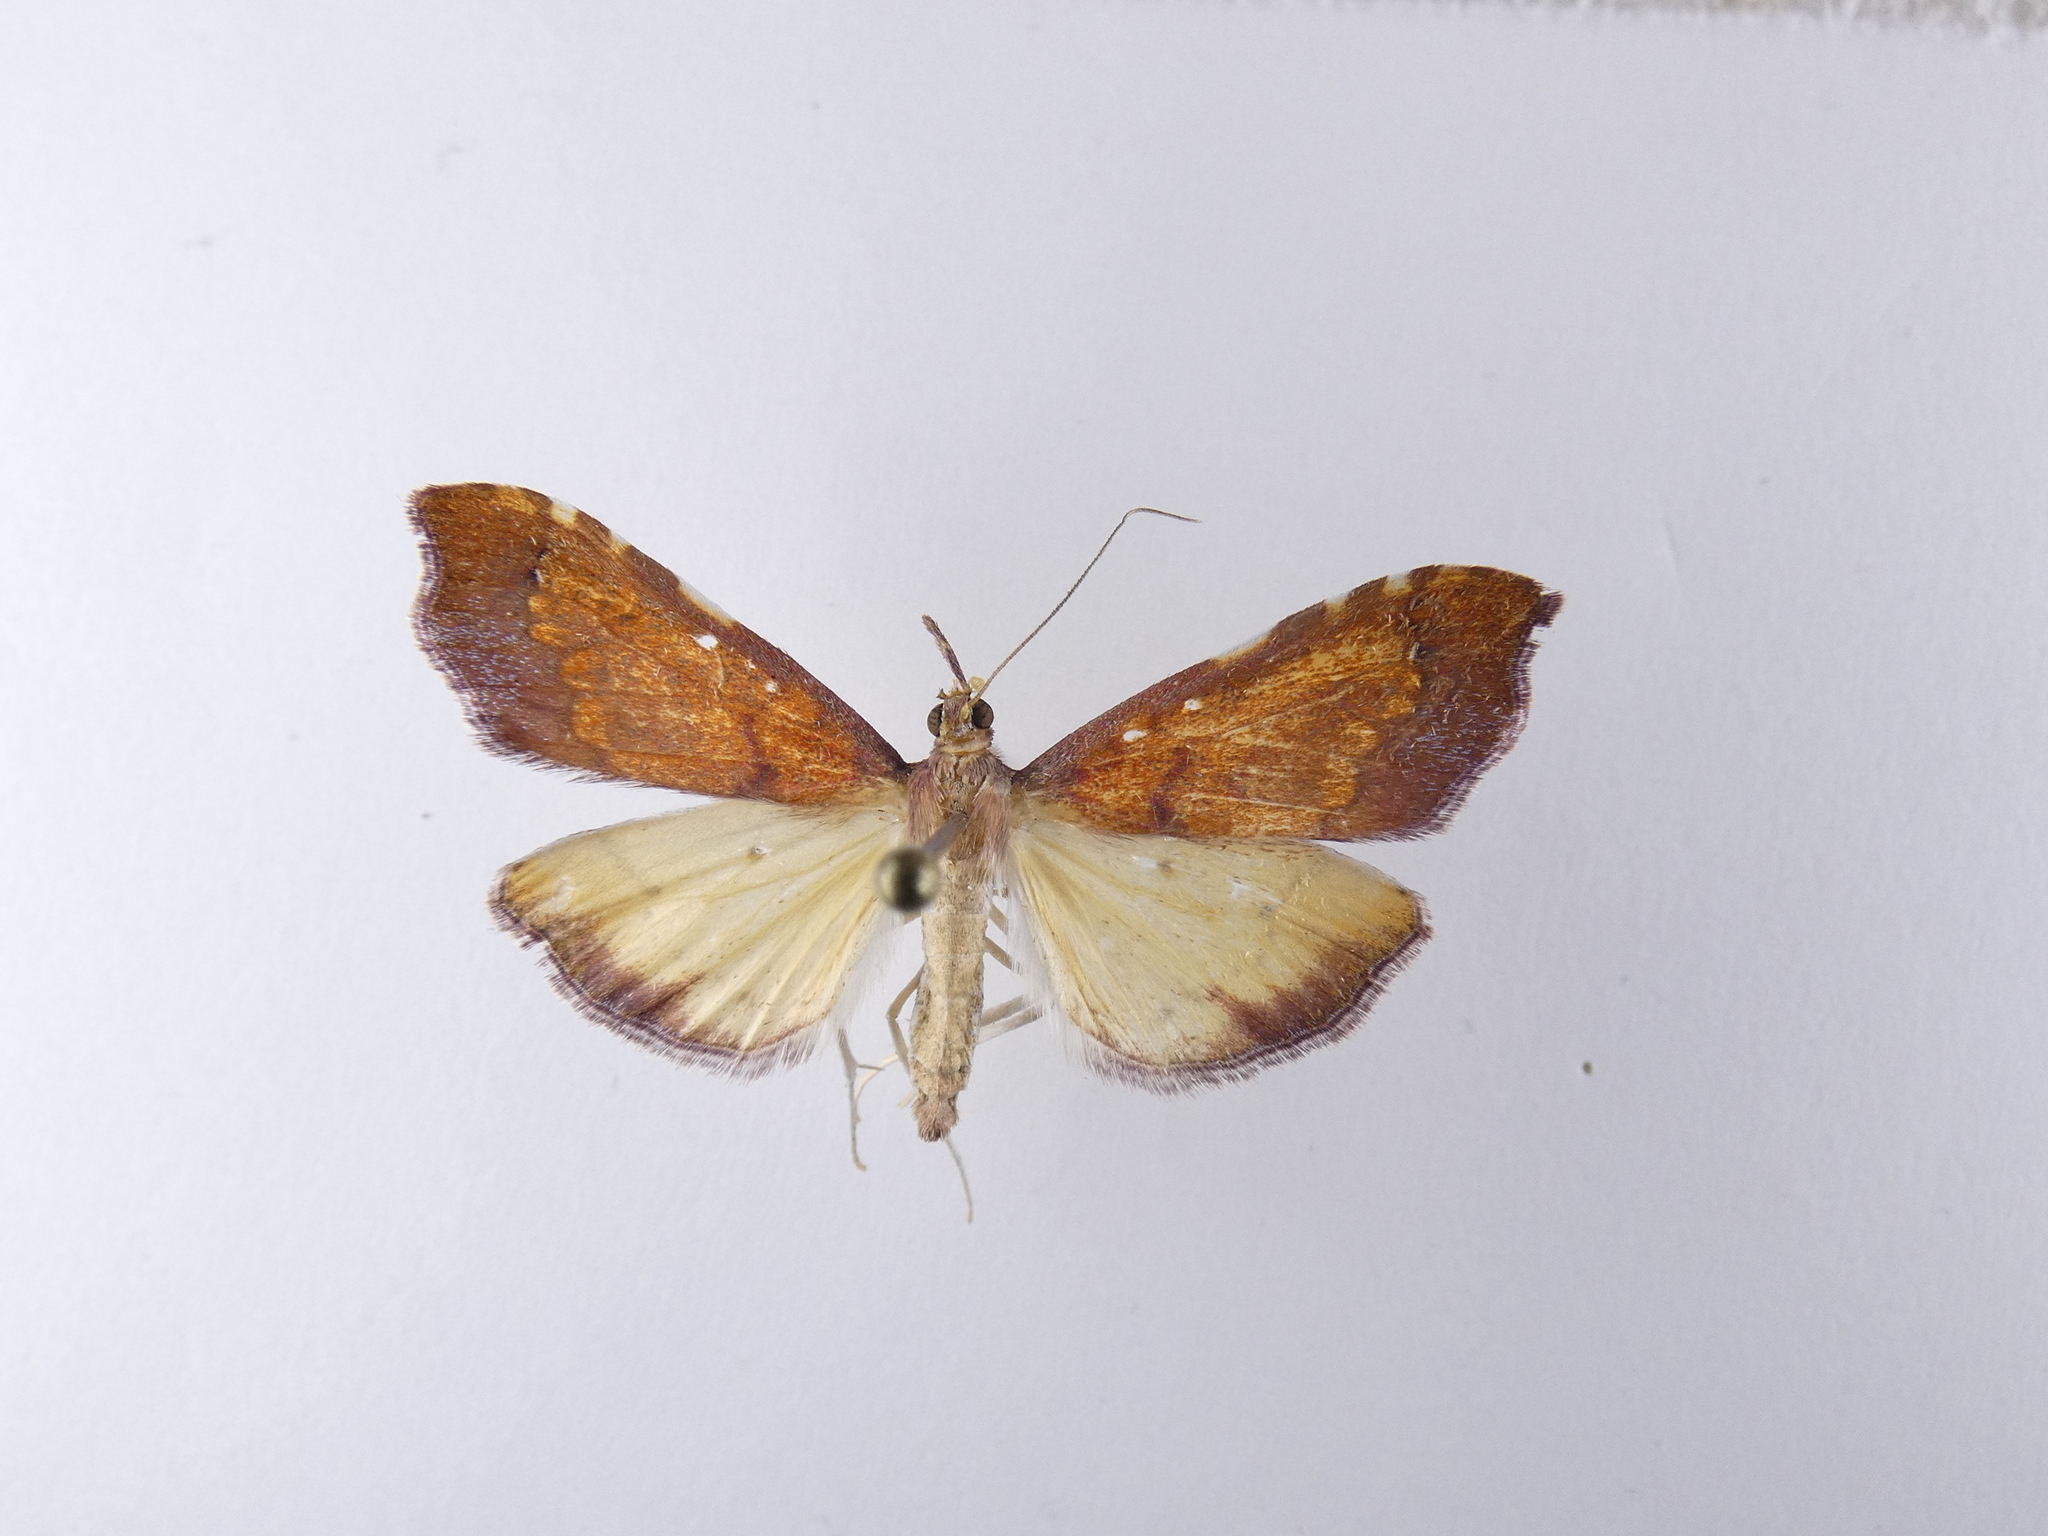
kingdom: Animalia
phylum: Arthropoda
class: Insecta
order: Lepidoptera
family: Crambidae
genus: Deana
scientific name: Deana hybreasalis
